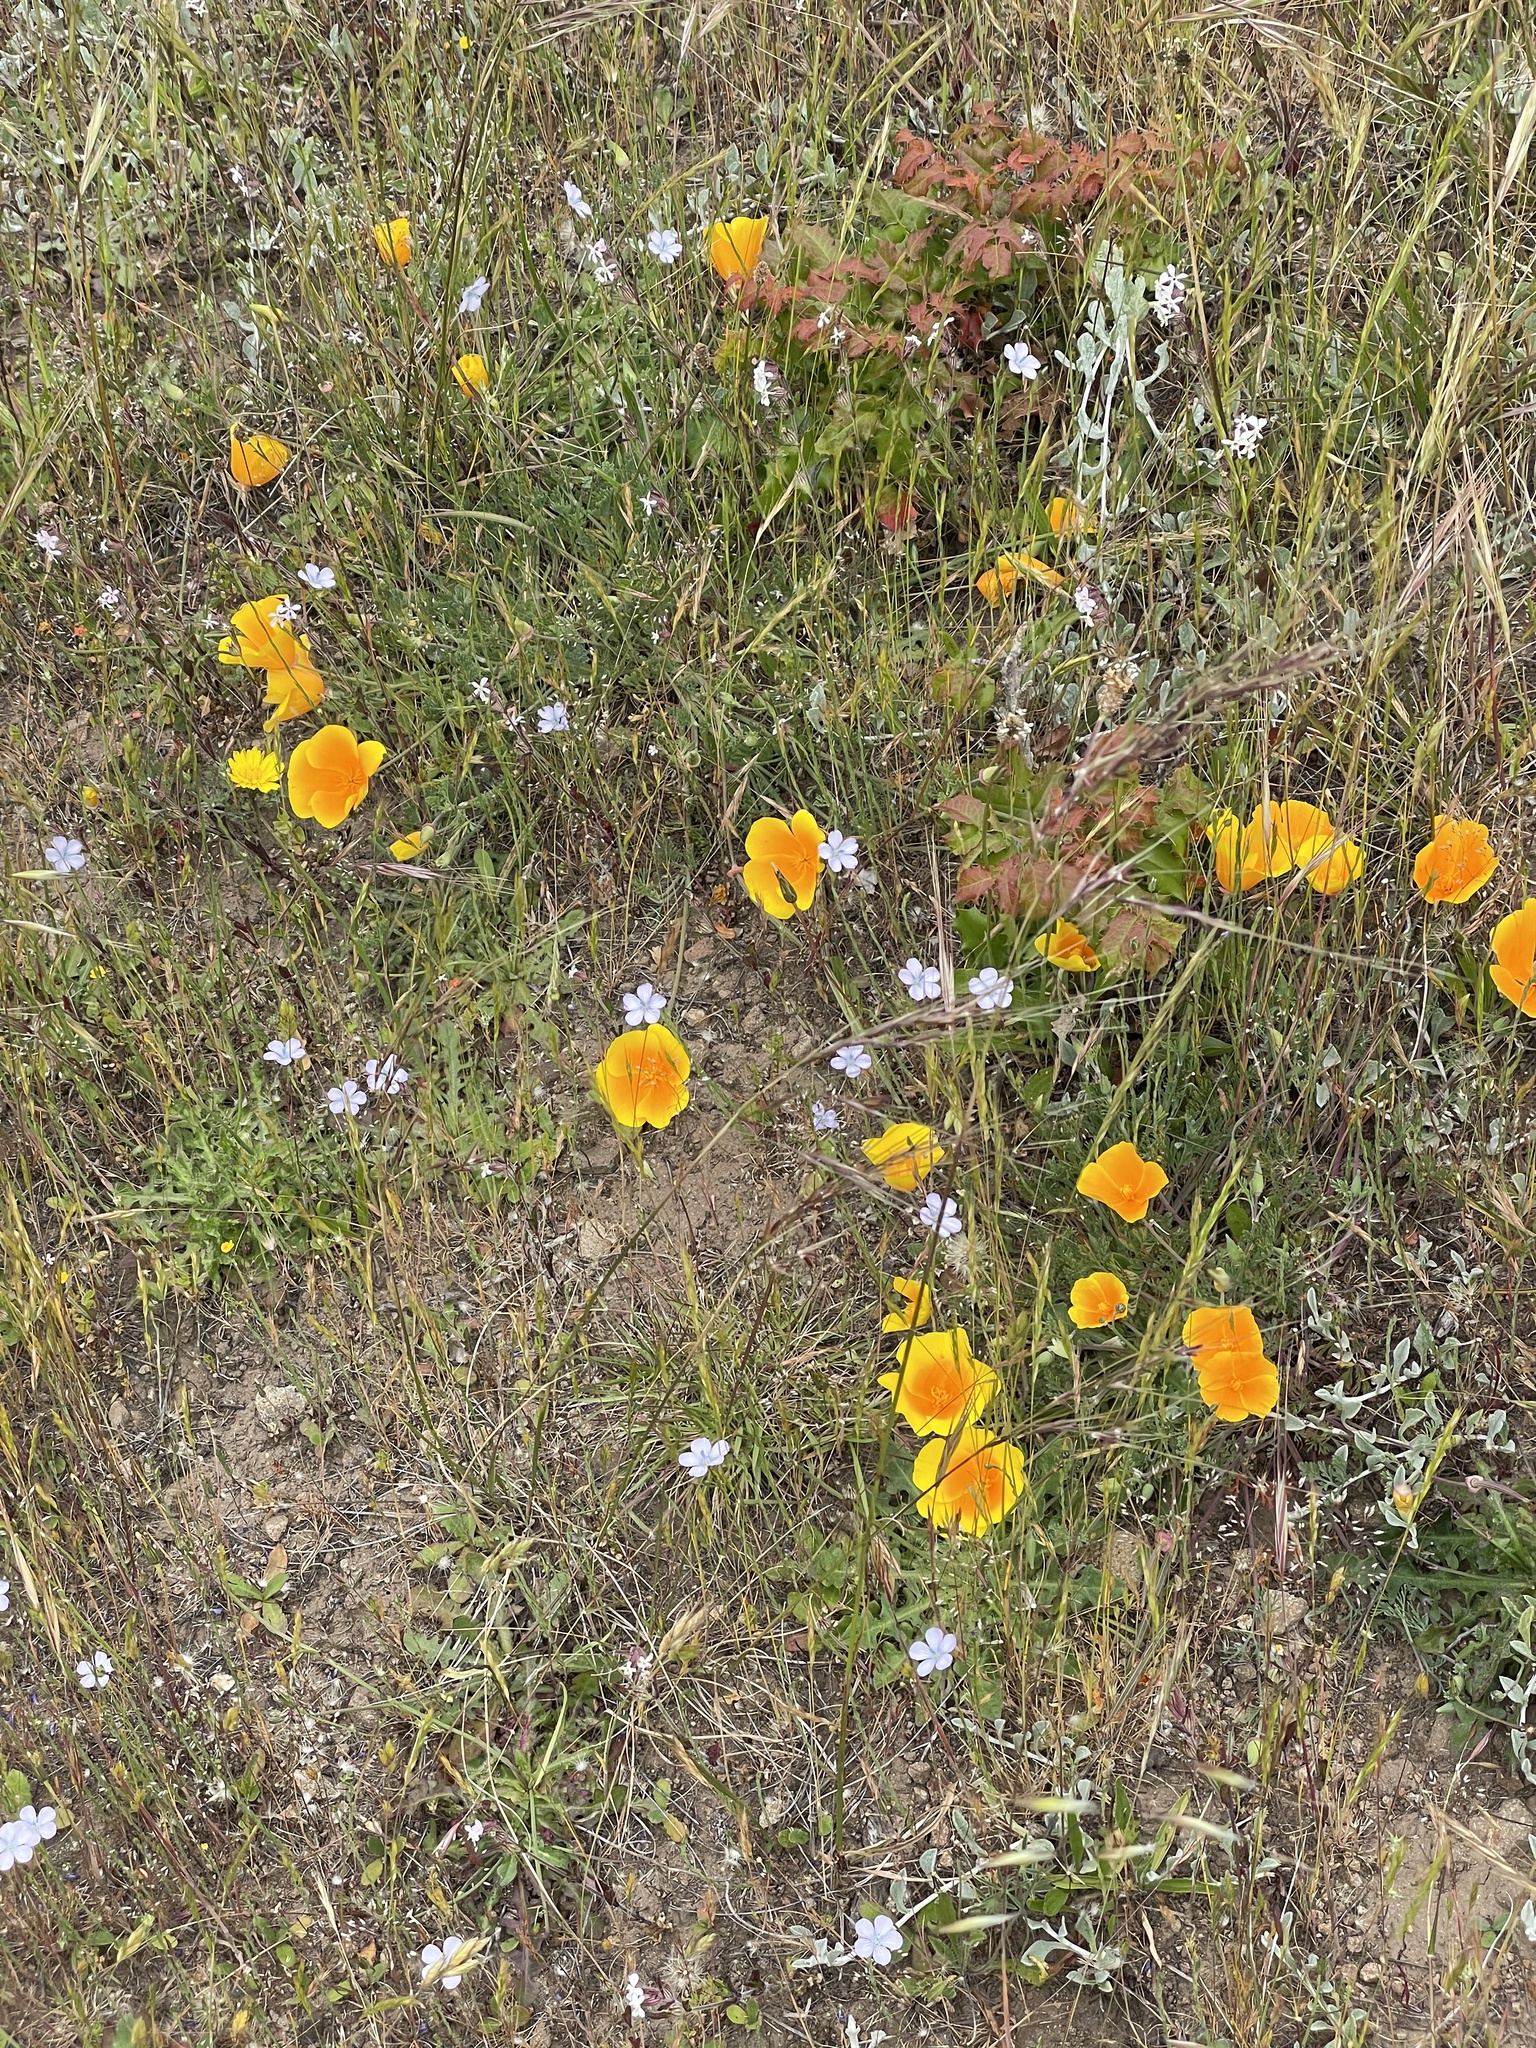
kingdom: Plantae
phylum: Tracheophyta
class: Magnoliopsida
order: Ranunculales
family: Papaveraceae
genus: Eschscholzia
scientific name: Eschscholzia californica
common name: California poppy
